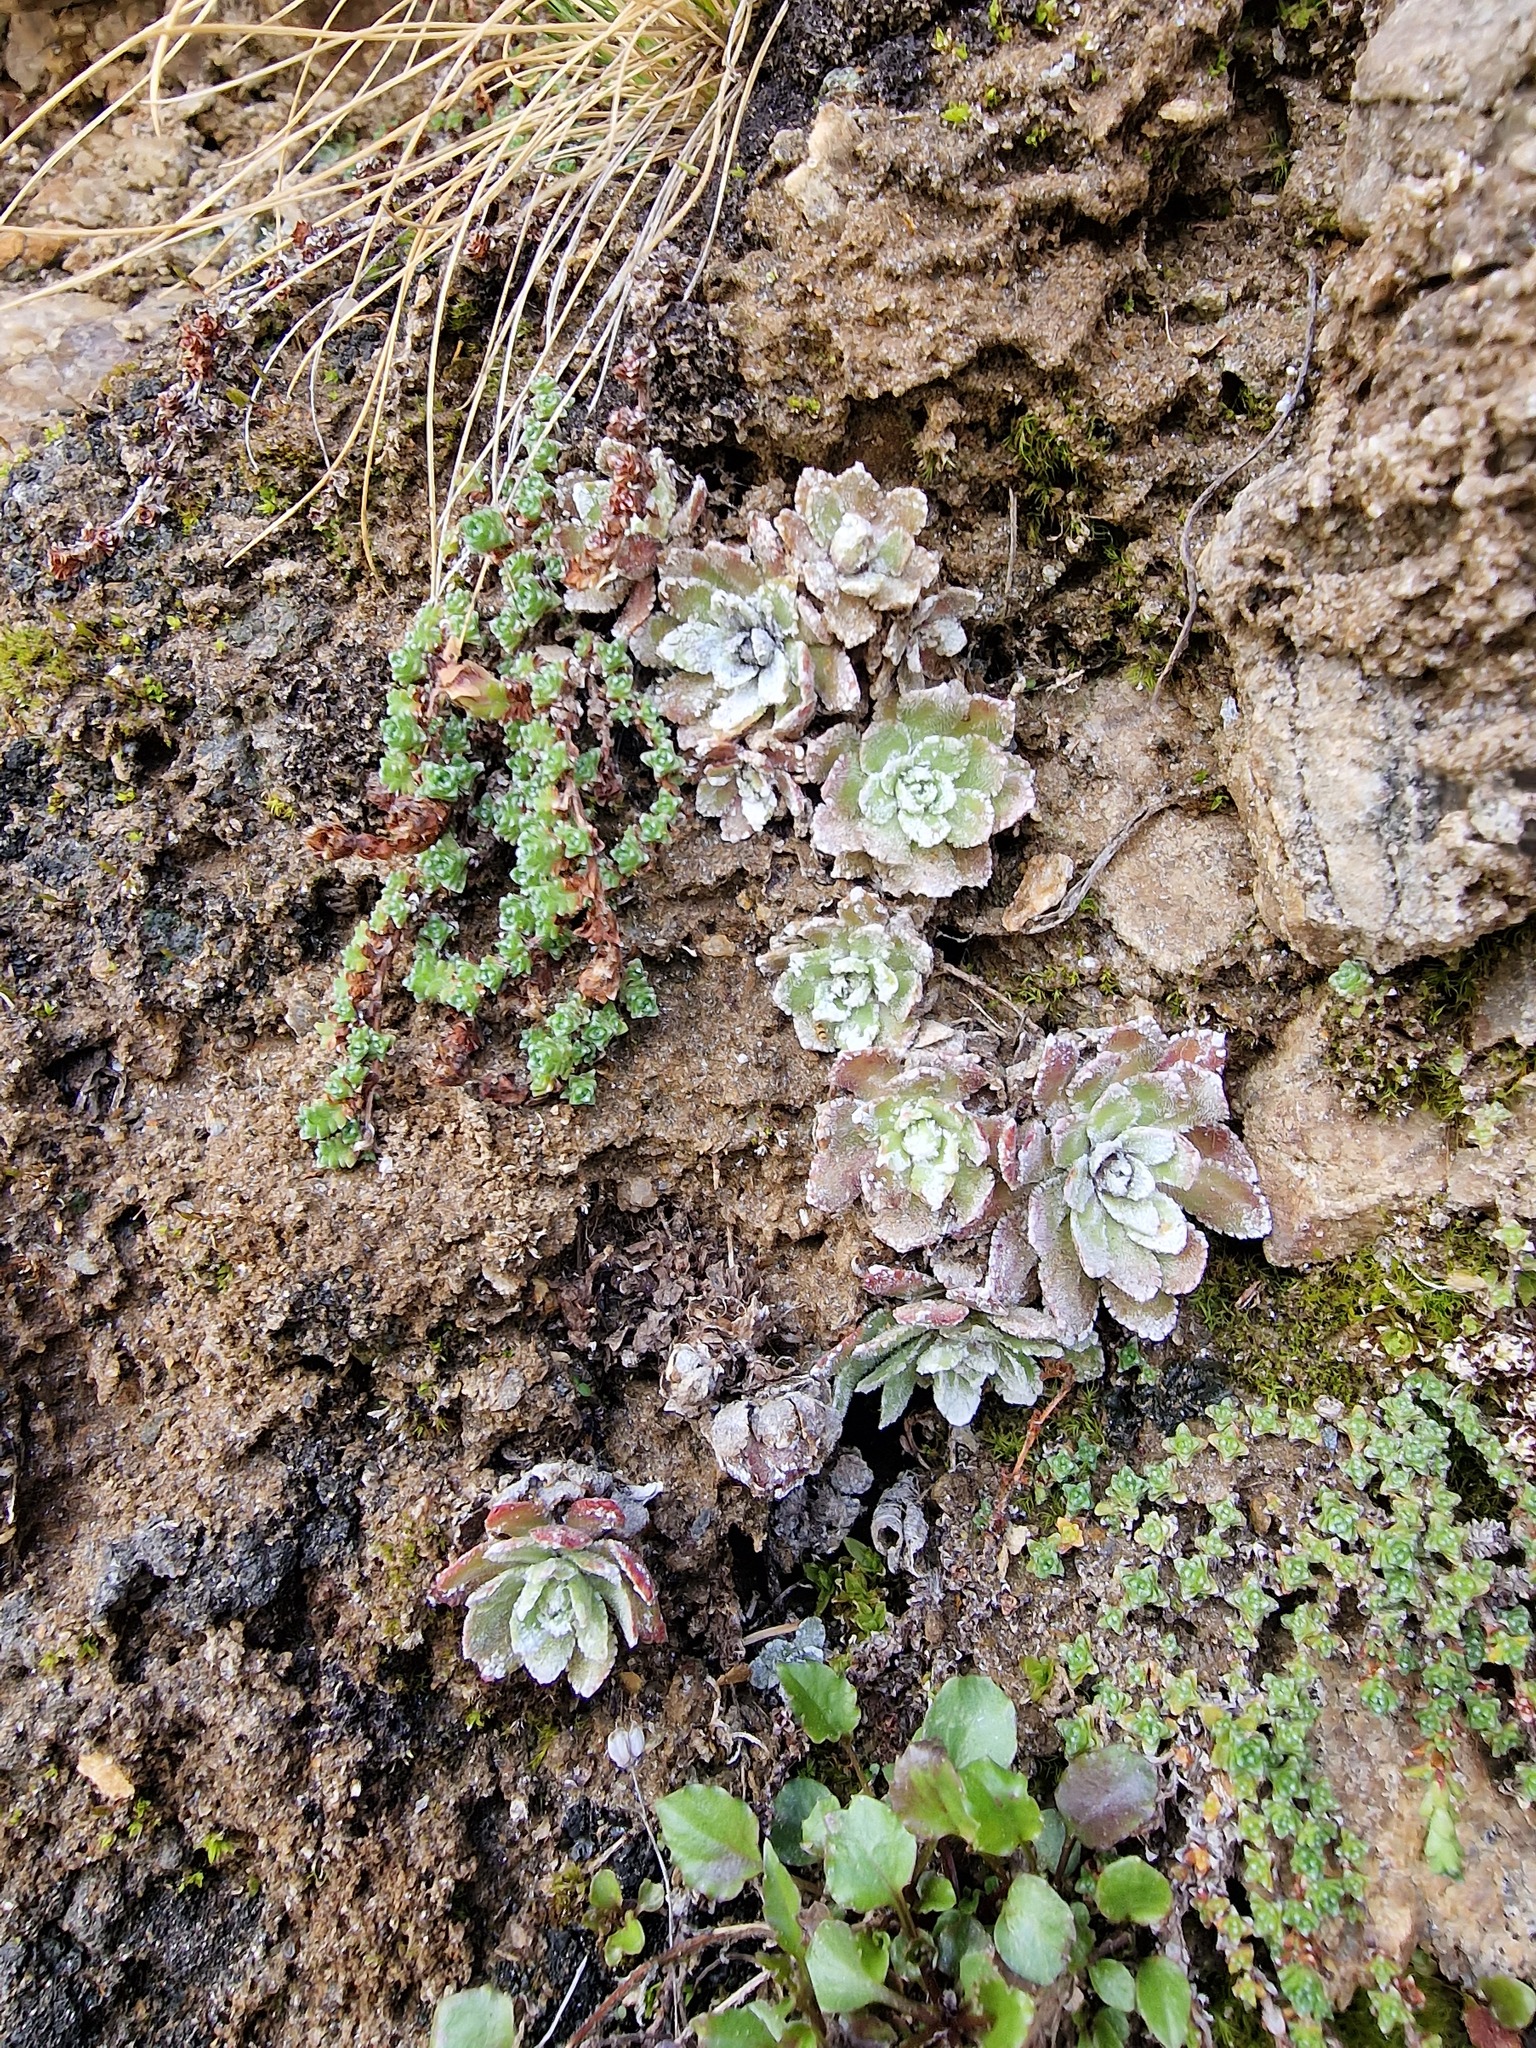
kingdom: Plantae
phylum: Tracheophyta
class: Magnoliopsida
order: Saxifragales
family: Saxifragaceae
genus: Saxifraga
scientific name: Saxifraga paniculata
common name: Livelong saxifrage
